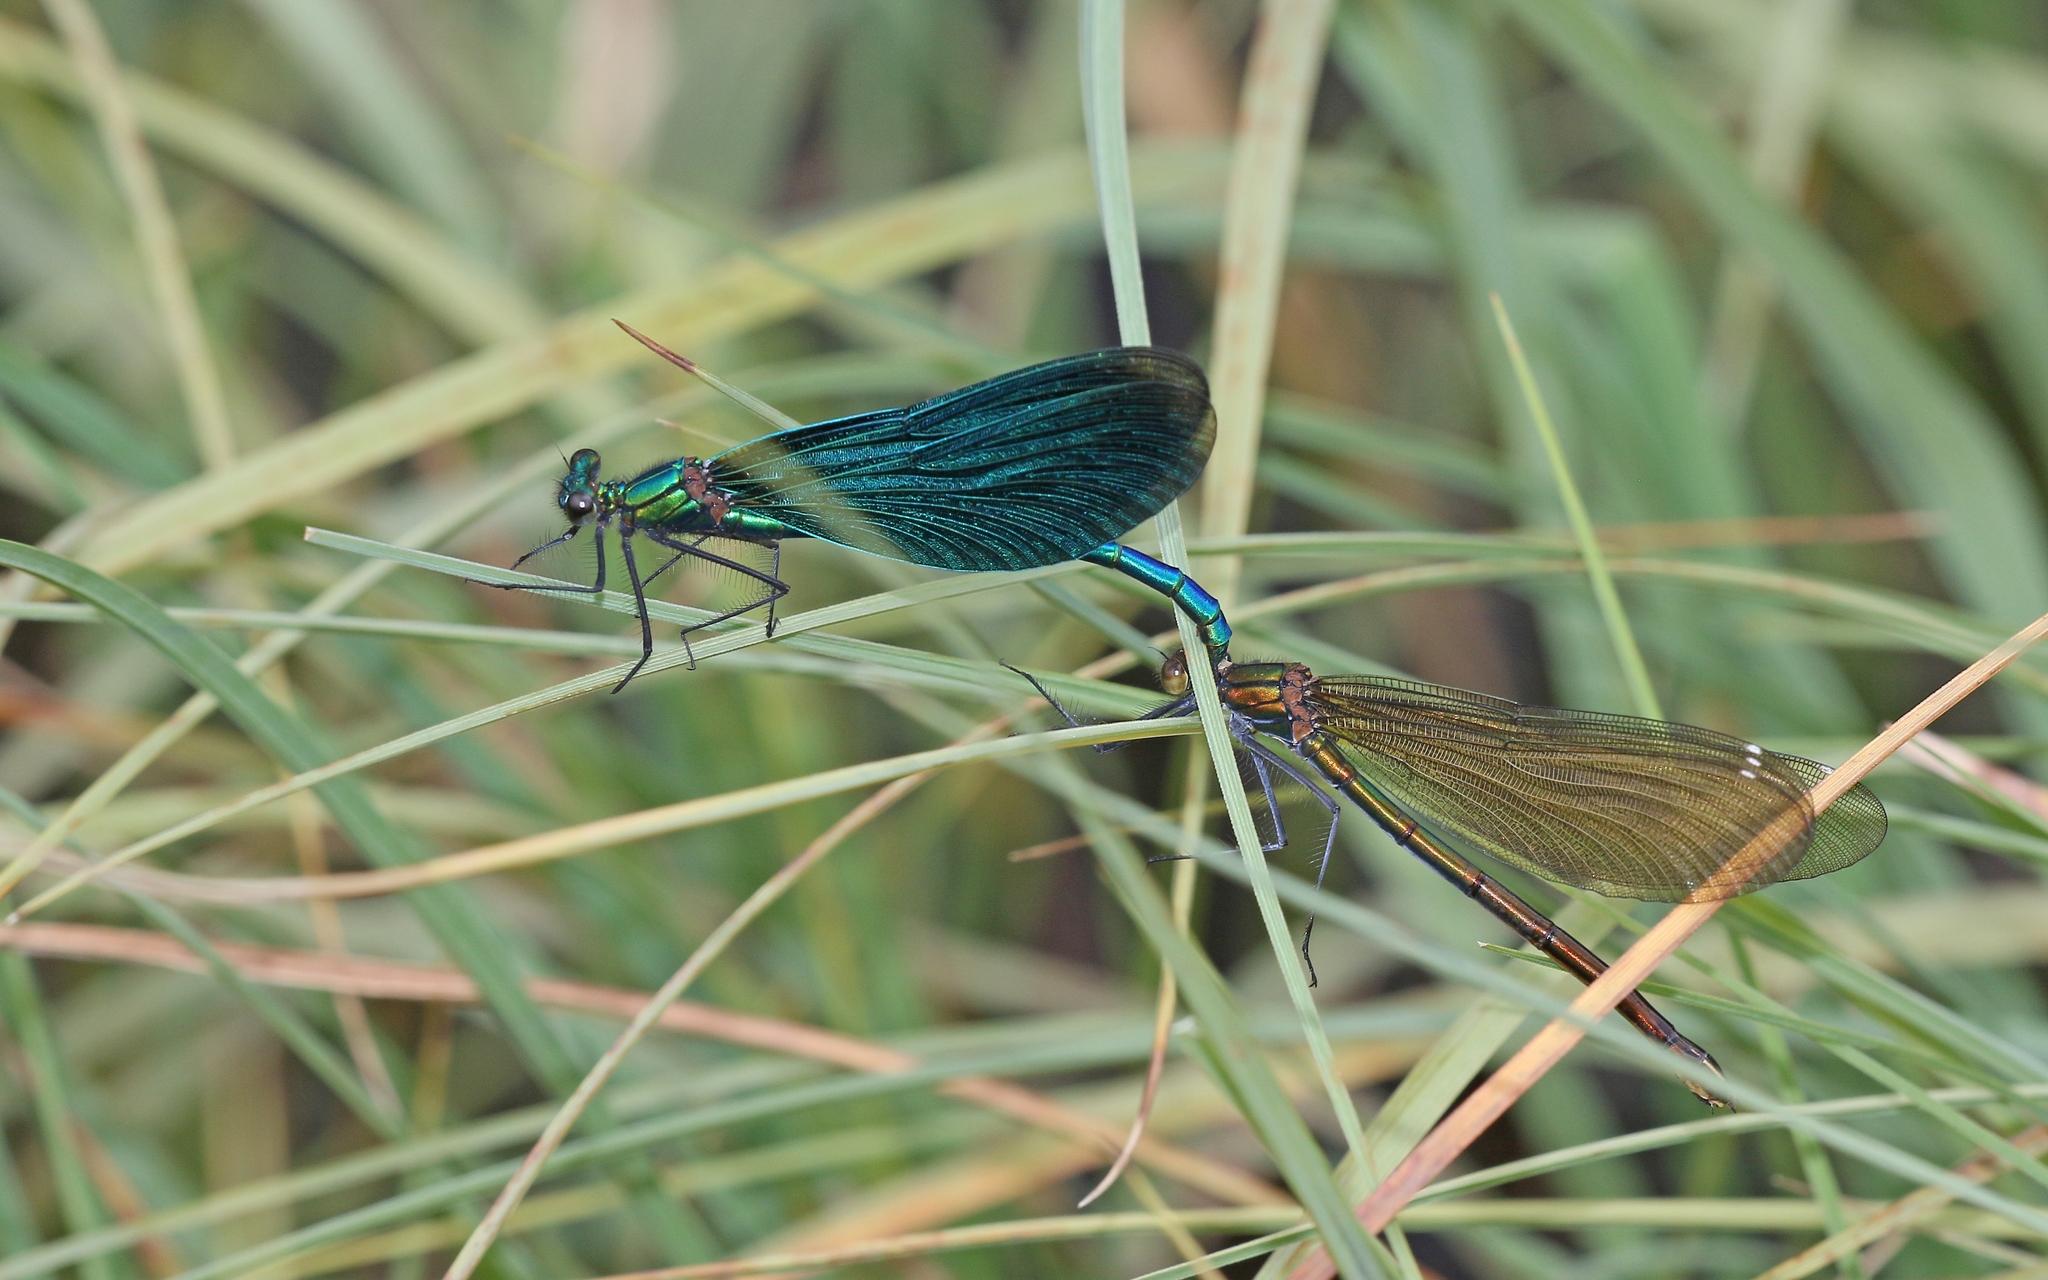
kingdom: Animalia
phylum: Arthropoda
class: Insecta
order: Odonata
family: Calopterygidae
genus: Calopteryx
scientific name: Calopteryx virgo
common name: Beautiful demoiselle
